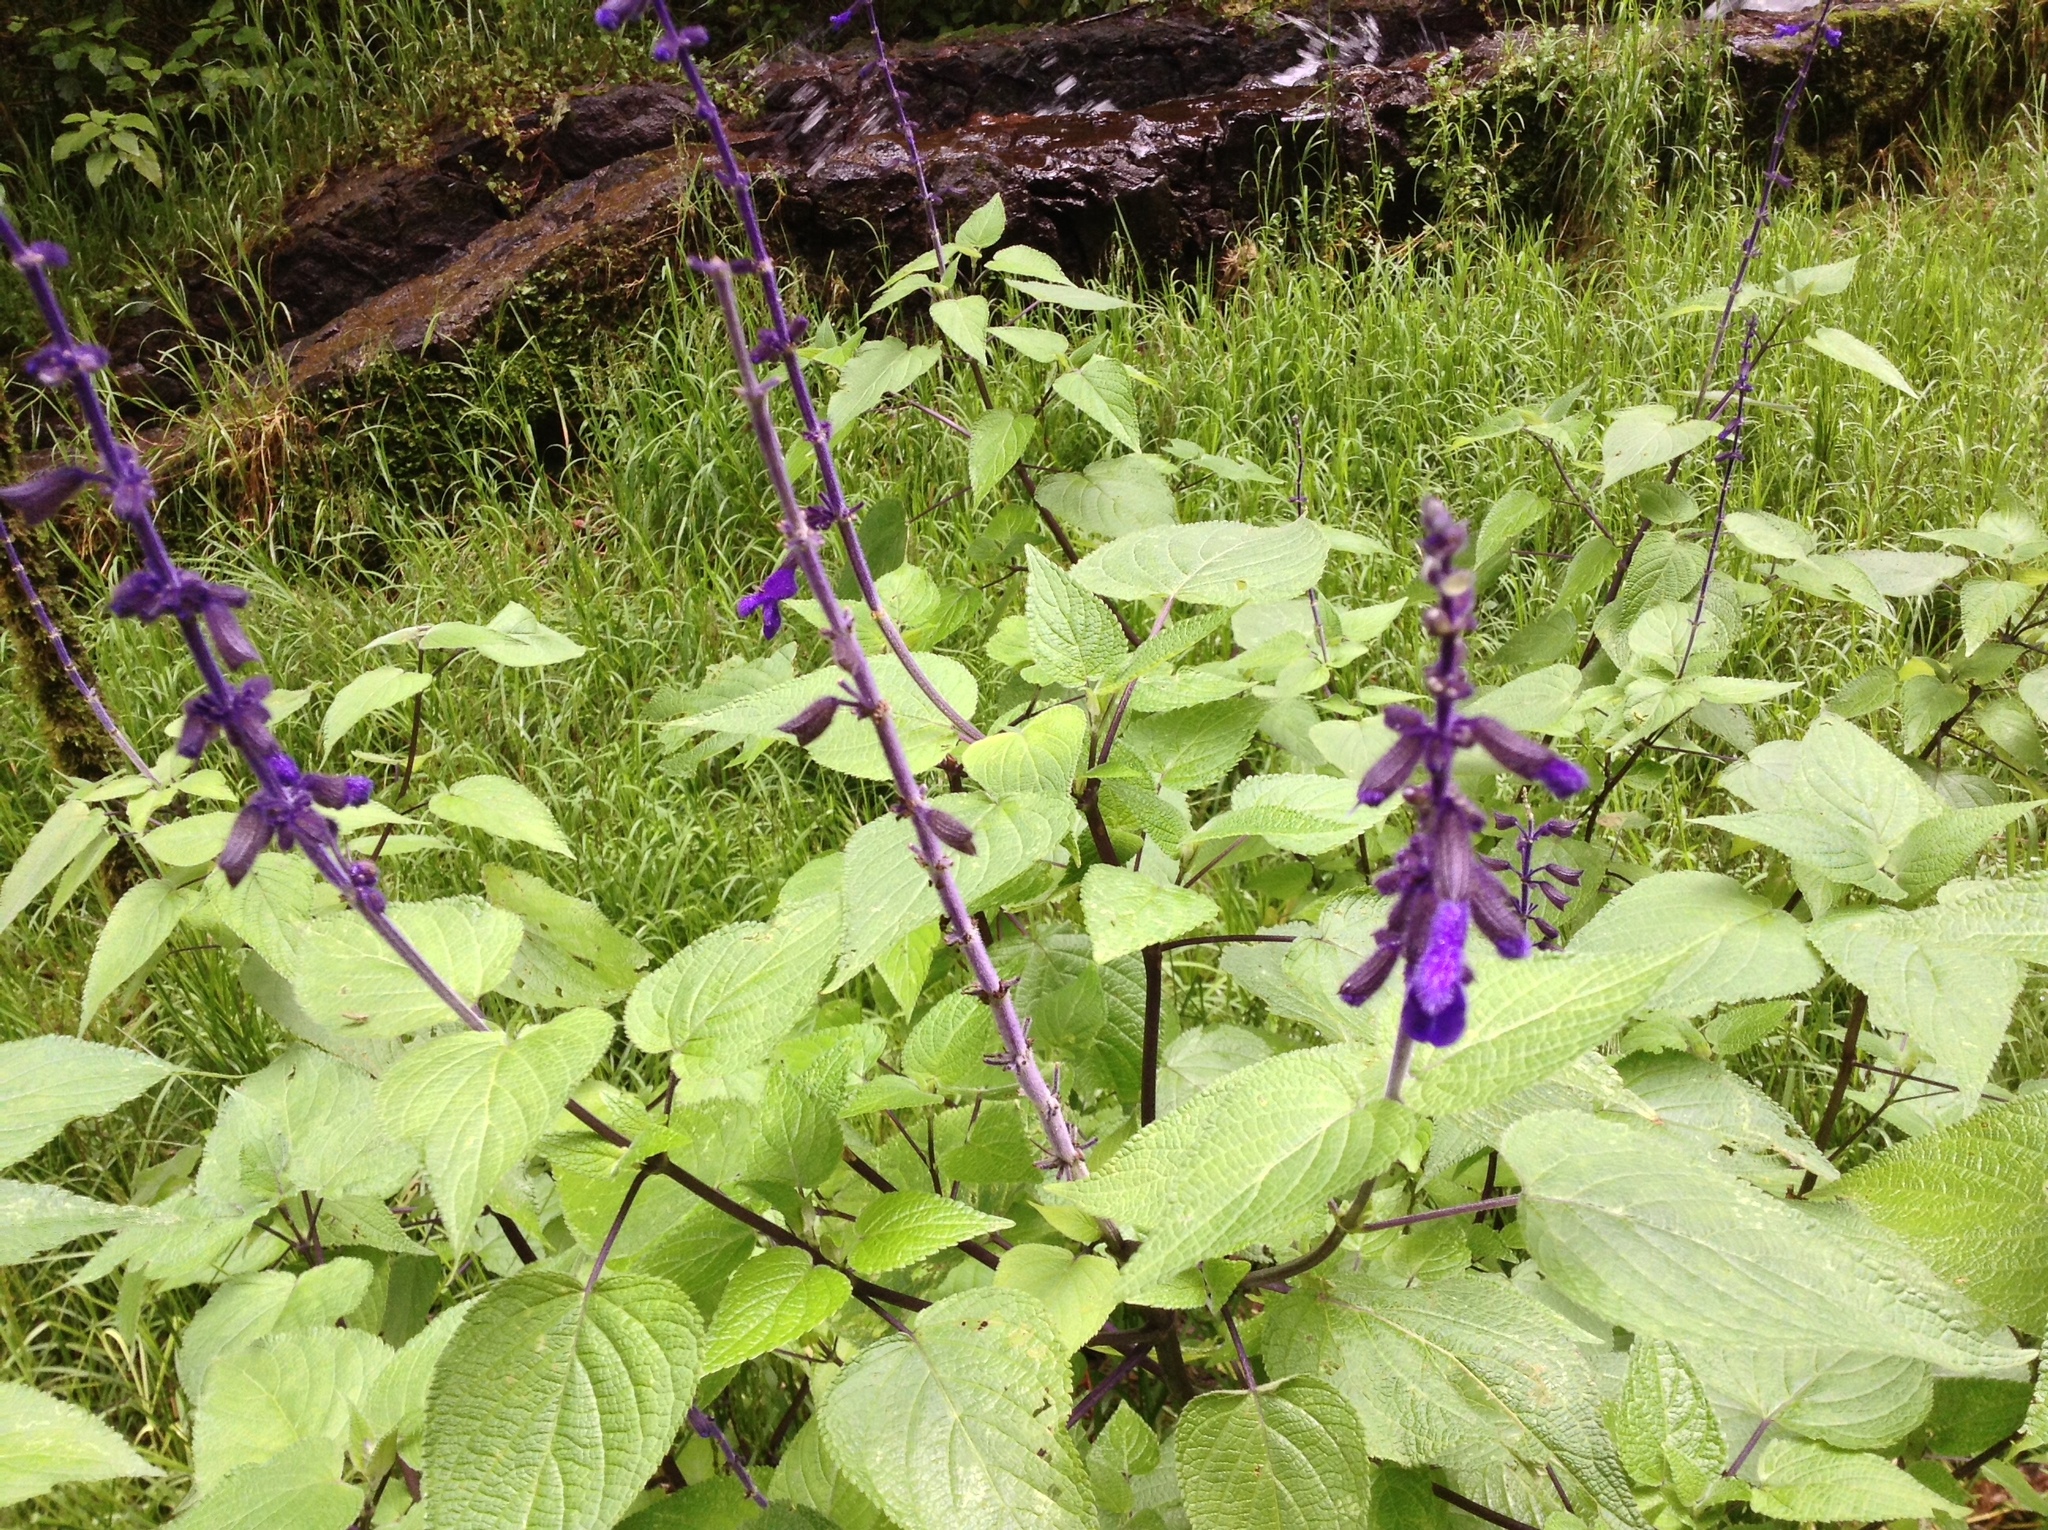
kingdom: Plantae
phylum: Tracheophyta
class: Magnoliopsida
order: Lamiales
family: Lamiaceae
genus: Salvia
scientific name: Salvia concolor
